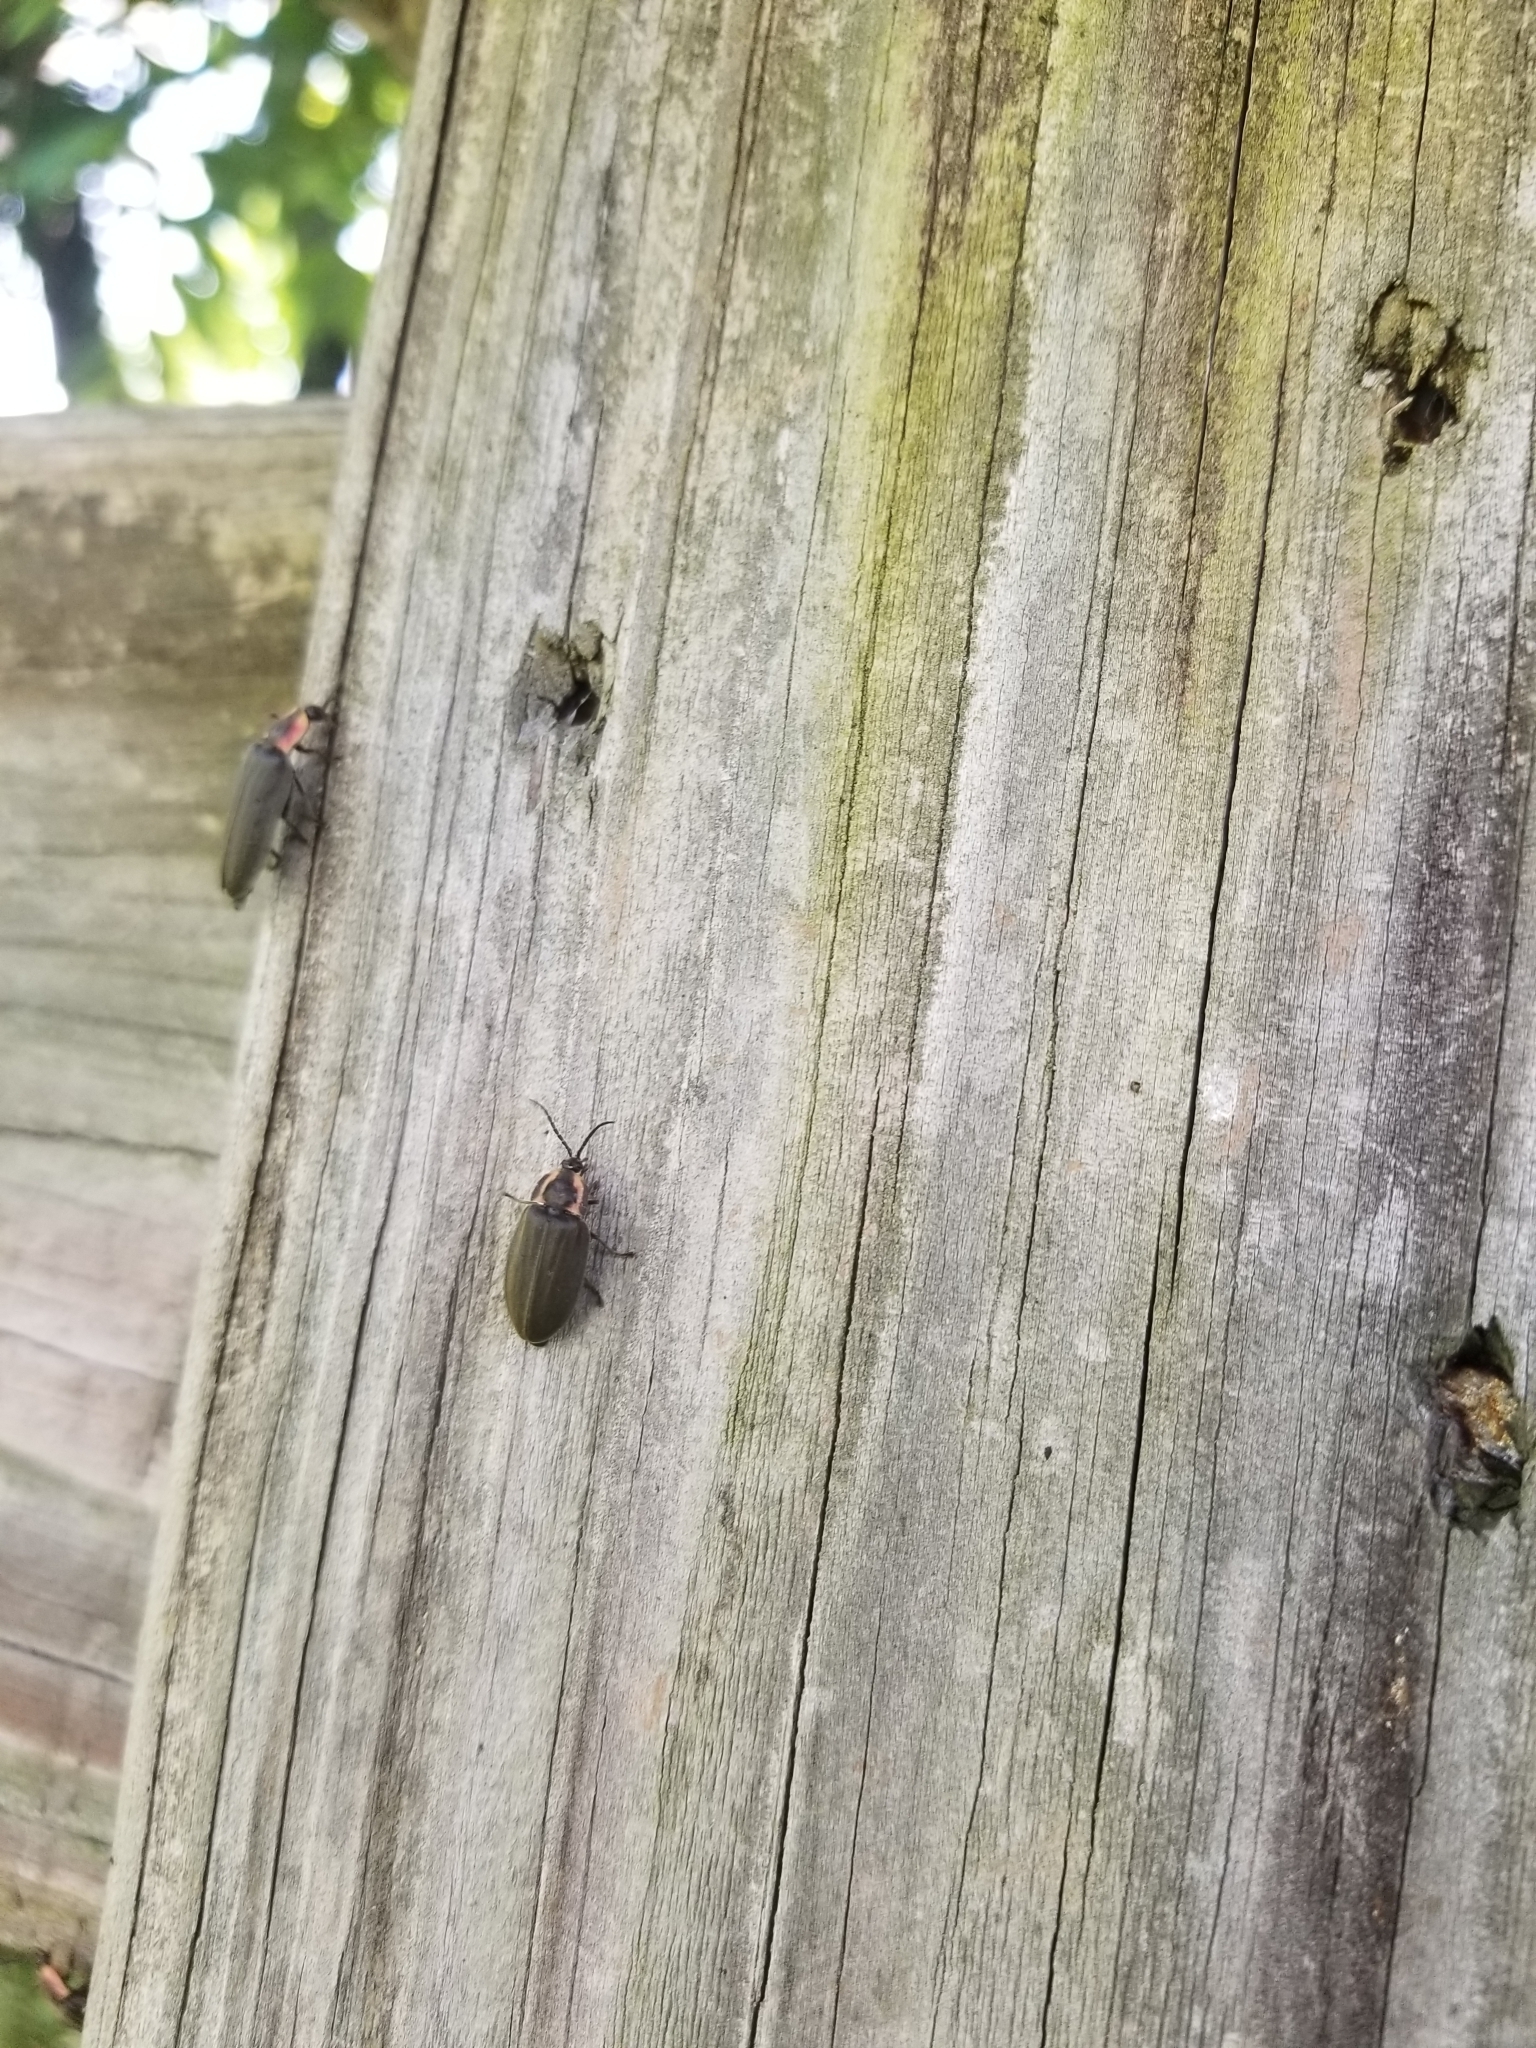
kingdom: Animalia
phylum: Arthropoda
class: Insecta
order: Coleoptera
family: Lampyridae
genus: Photinus
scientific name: Photinus corrusca
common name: Winter firefly
